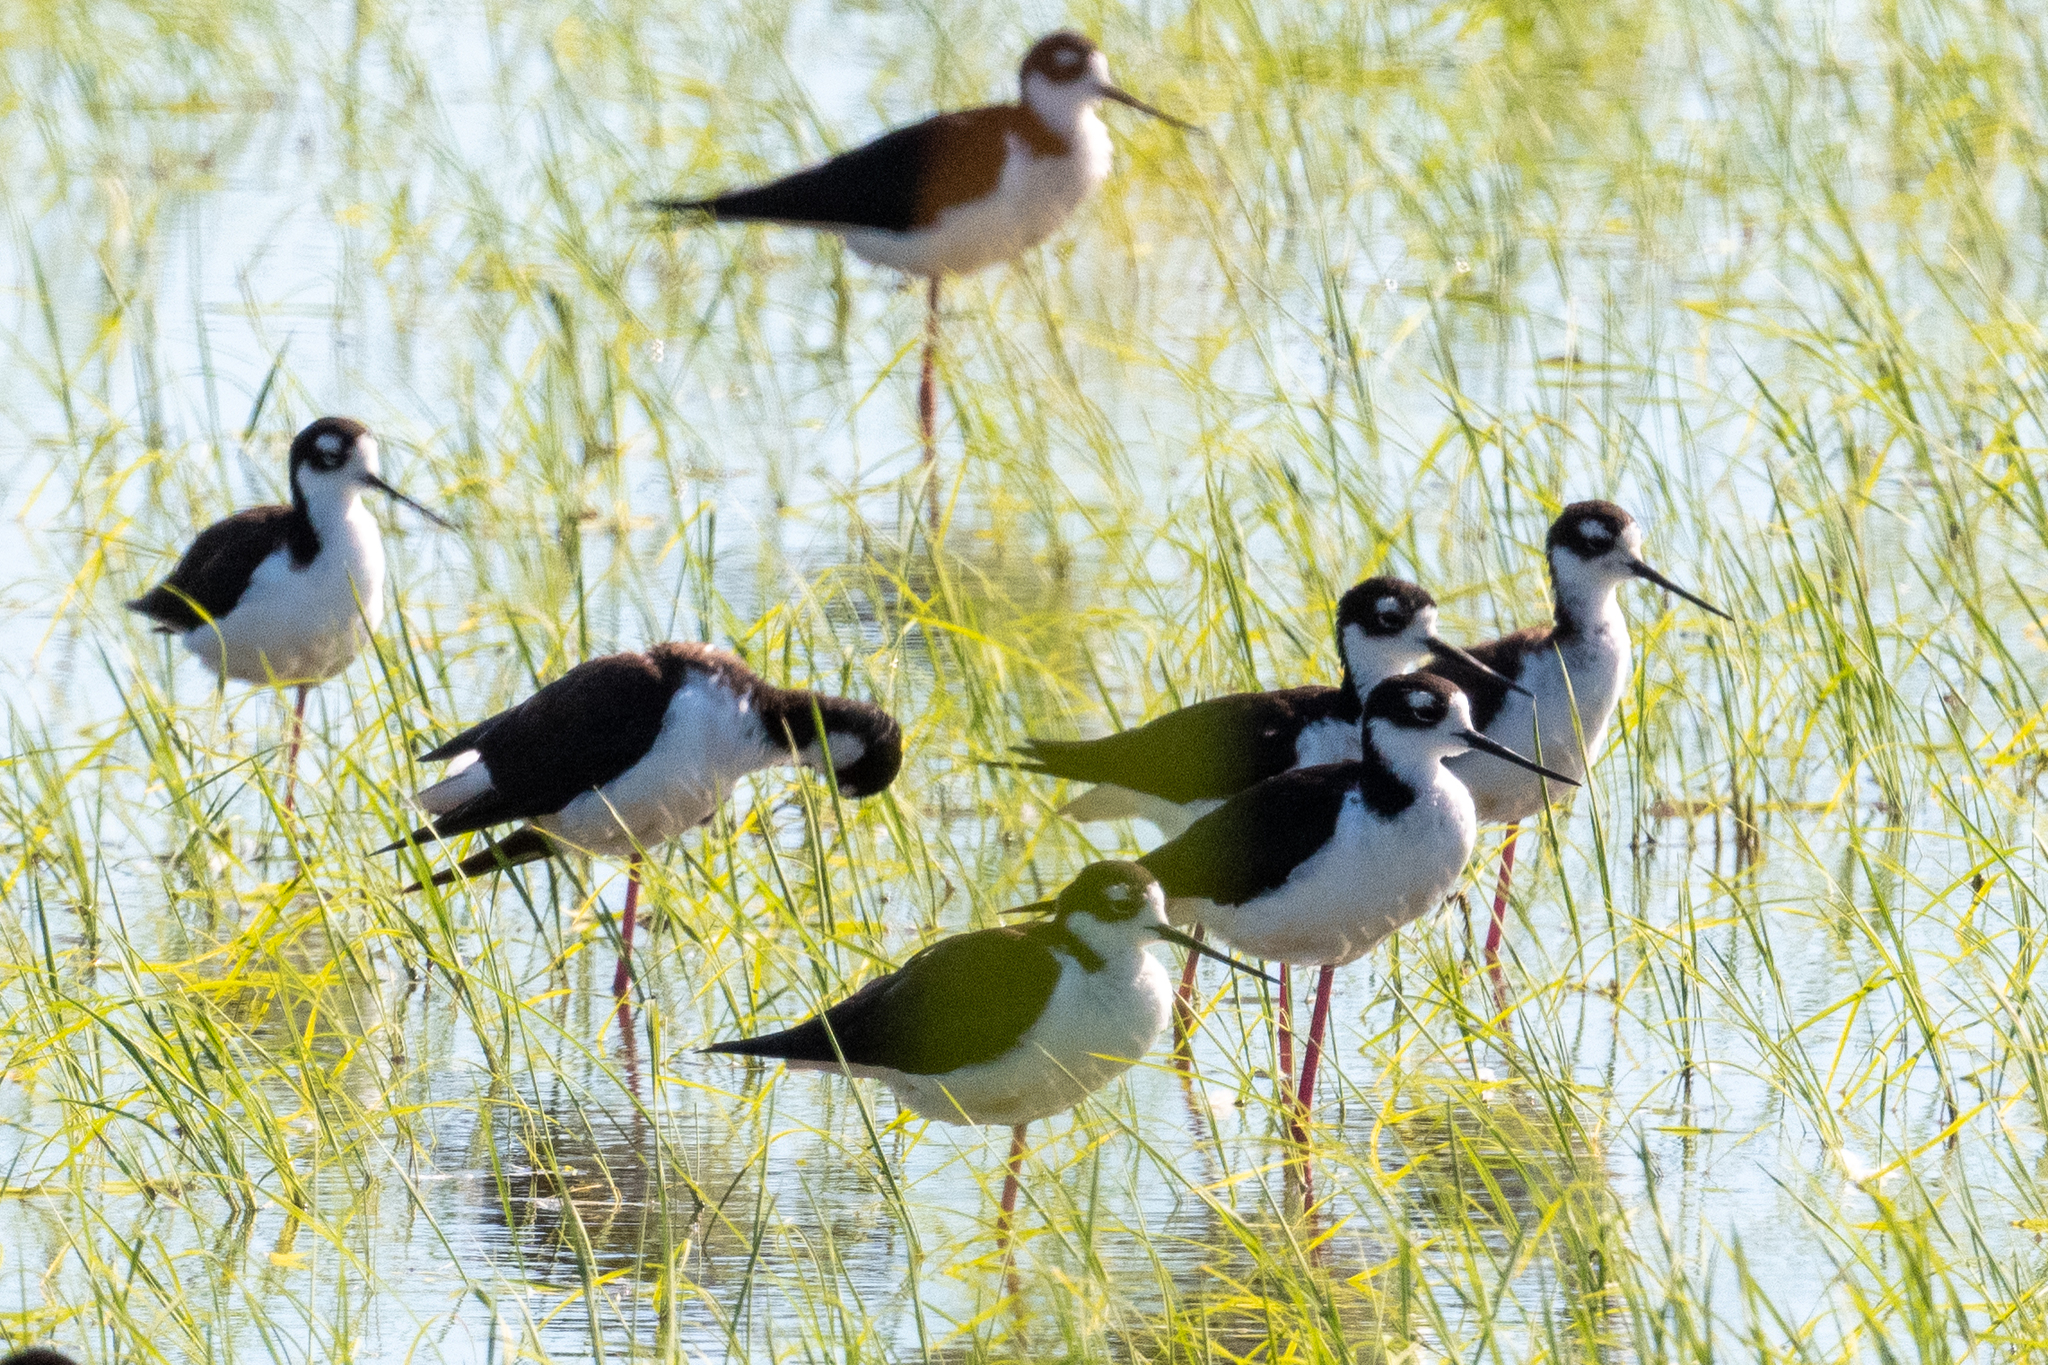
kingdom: Animalia
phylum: Chordata
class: Aves
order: Charadriiformes
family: Recurvirostridae
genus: Himantopus
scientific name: Himantopus mexicanus
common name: Black-necked stilt
